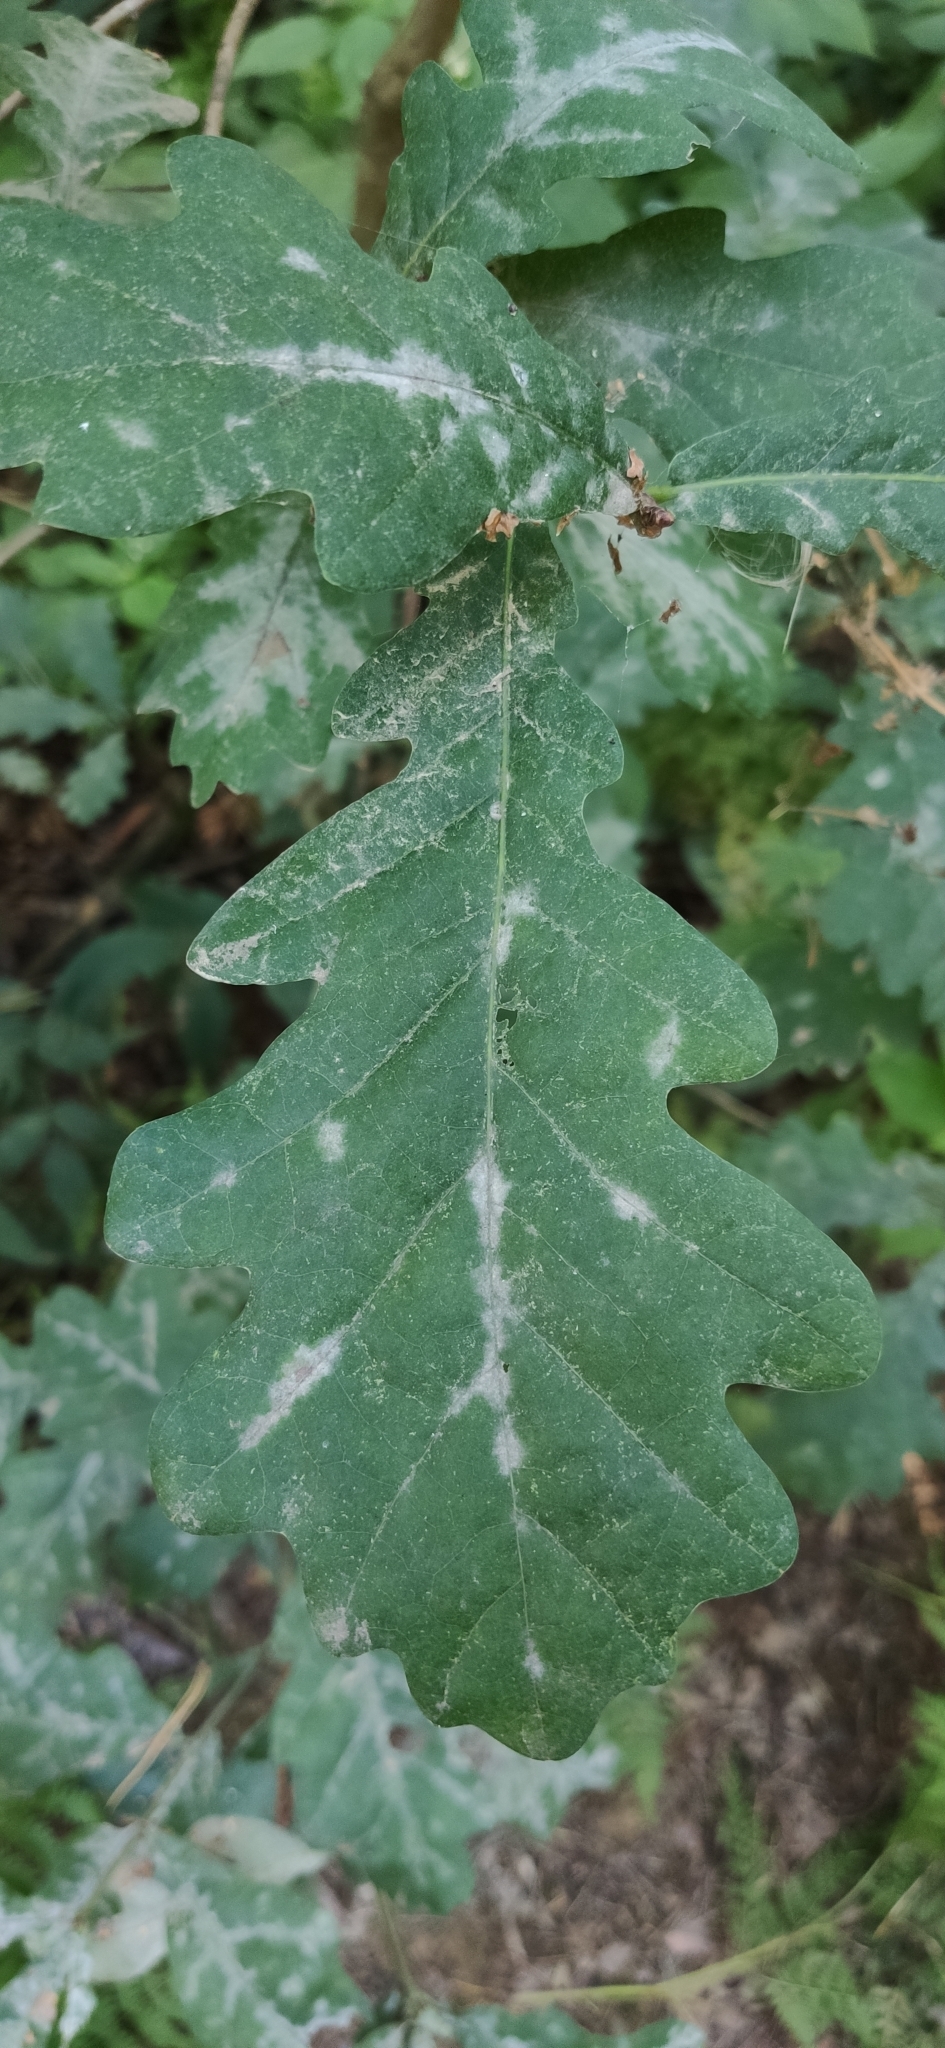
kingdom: Fungi
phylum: Ascomycota
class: Leotiomycetes
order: Helotiales
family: Erysiphaceae
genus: Erysiphe
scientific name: Erysiphe alphitoides
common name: Oak mildew
